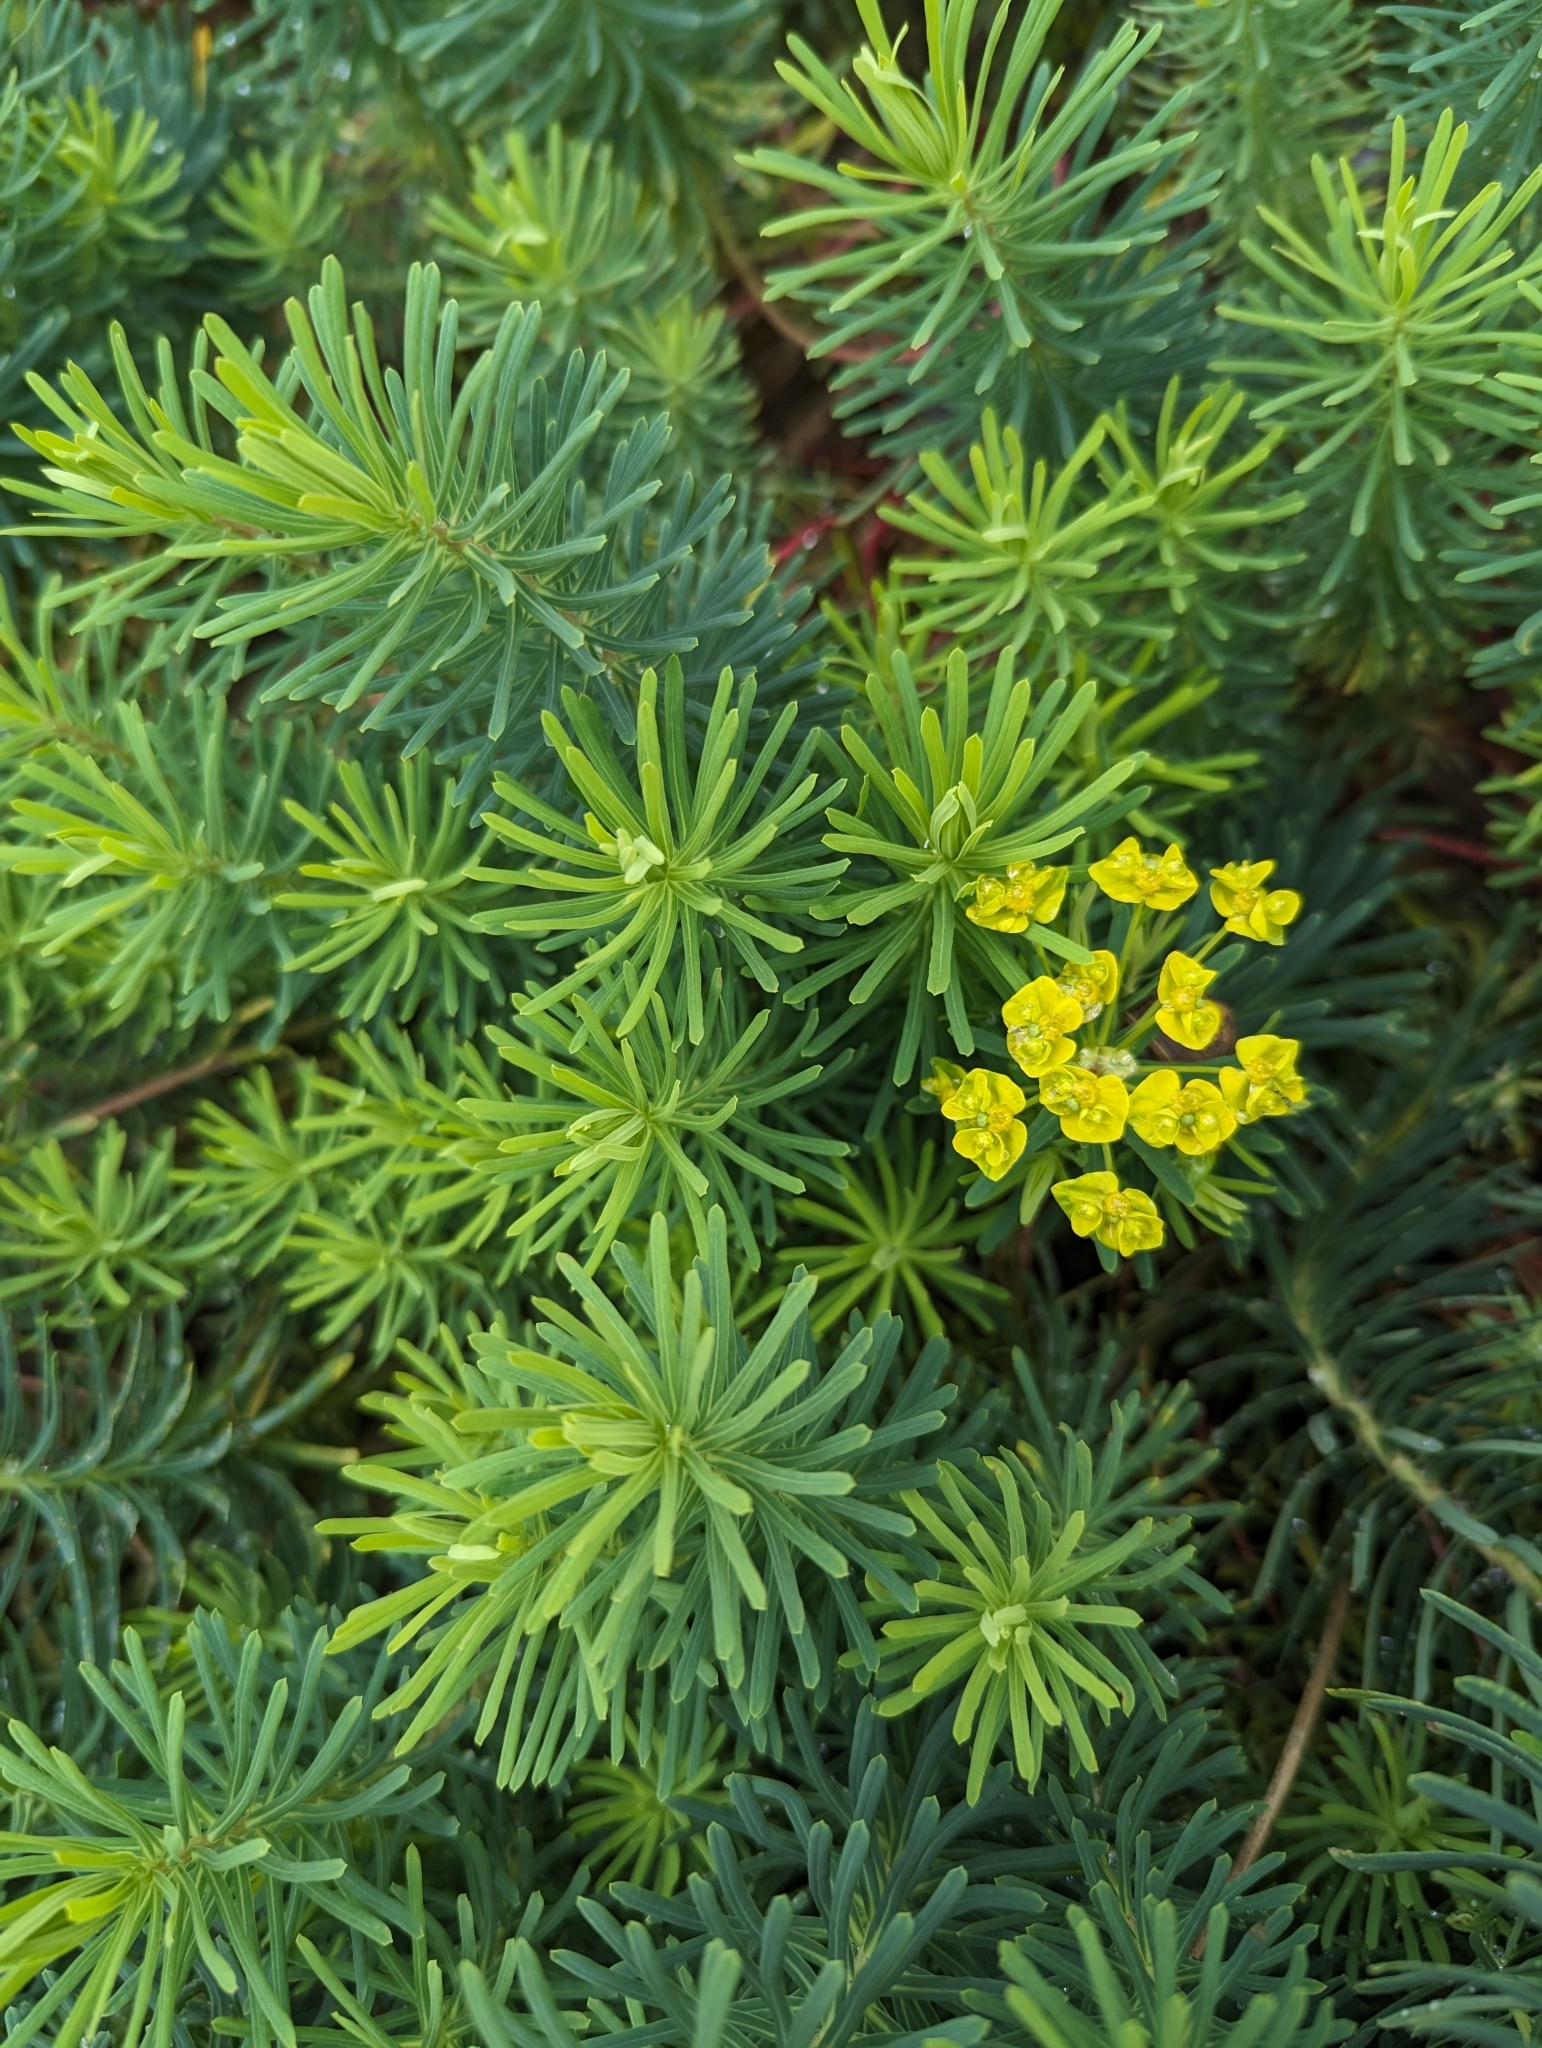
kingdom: Plantae
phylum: Tracheophyta
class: Magnoliopsida
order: Malpighiales
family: Euphorbiaceae
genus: Euphorbia
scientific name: Euphorbia cyparissias
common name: Cypress spurge
